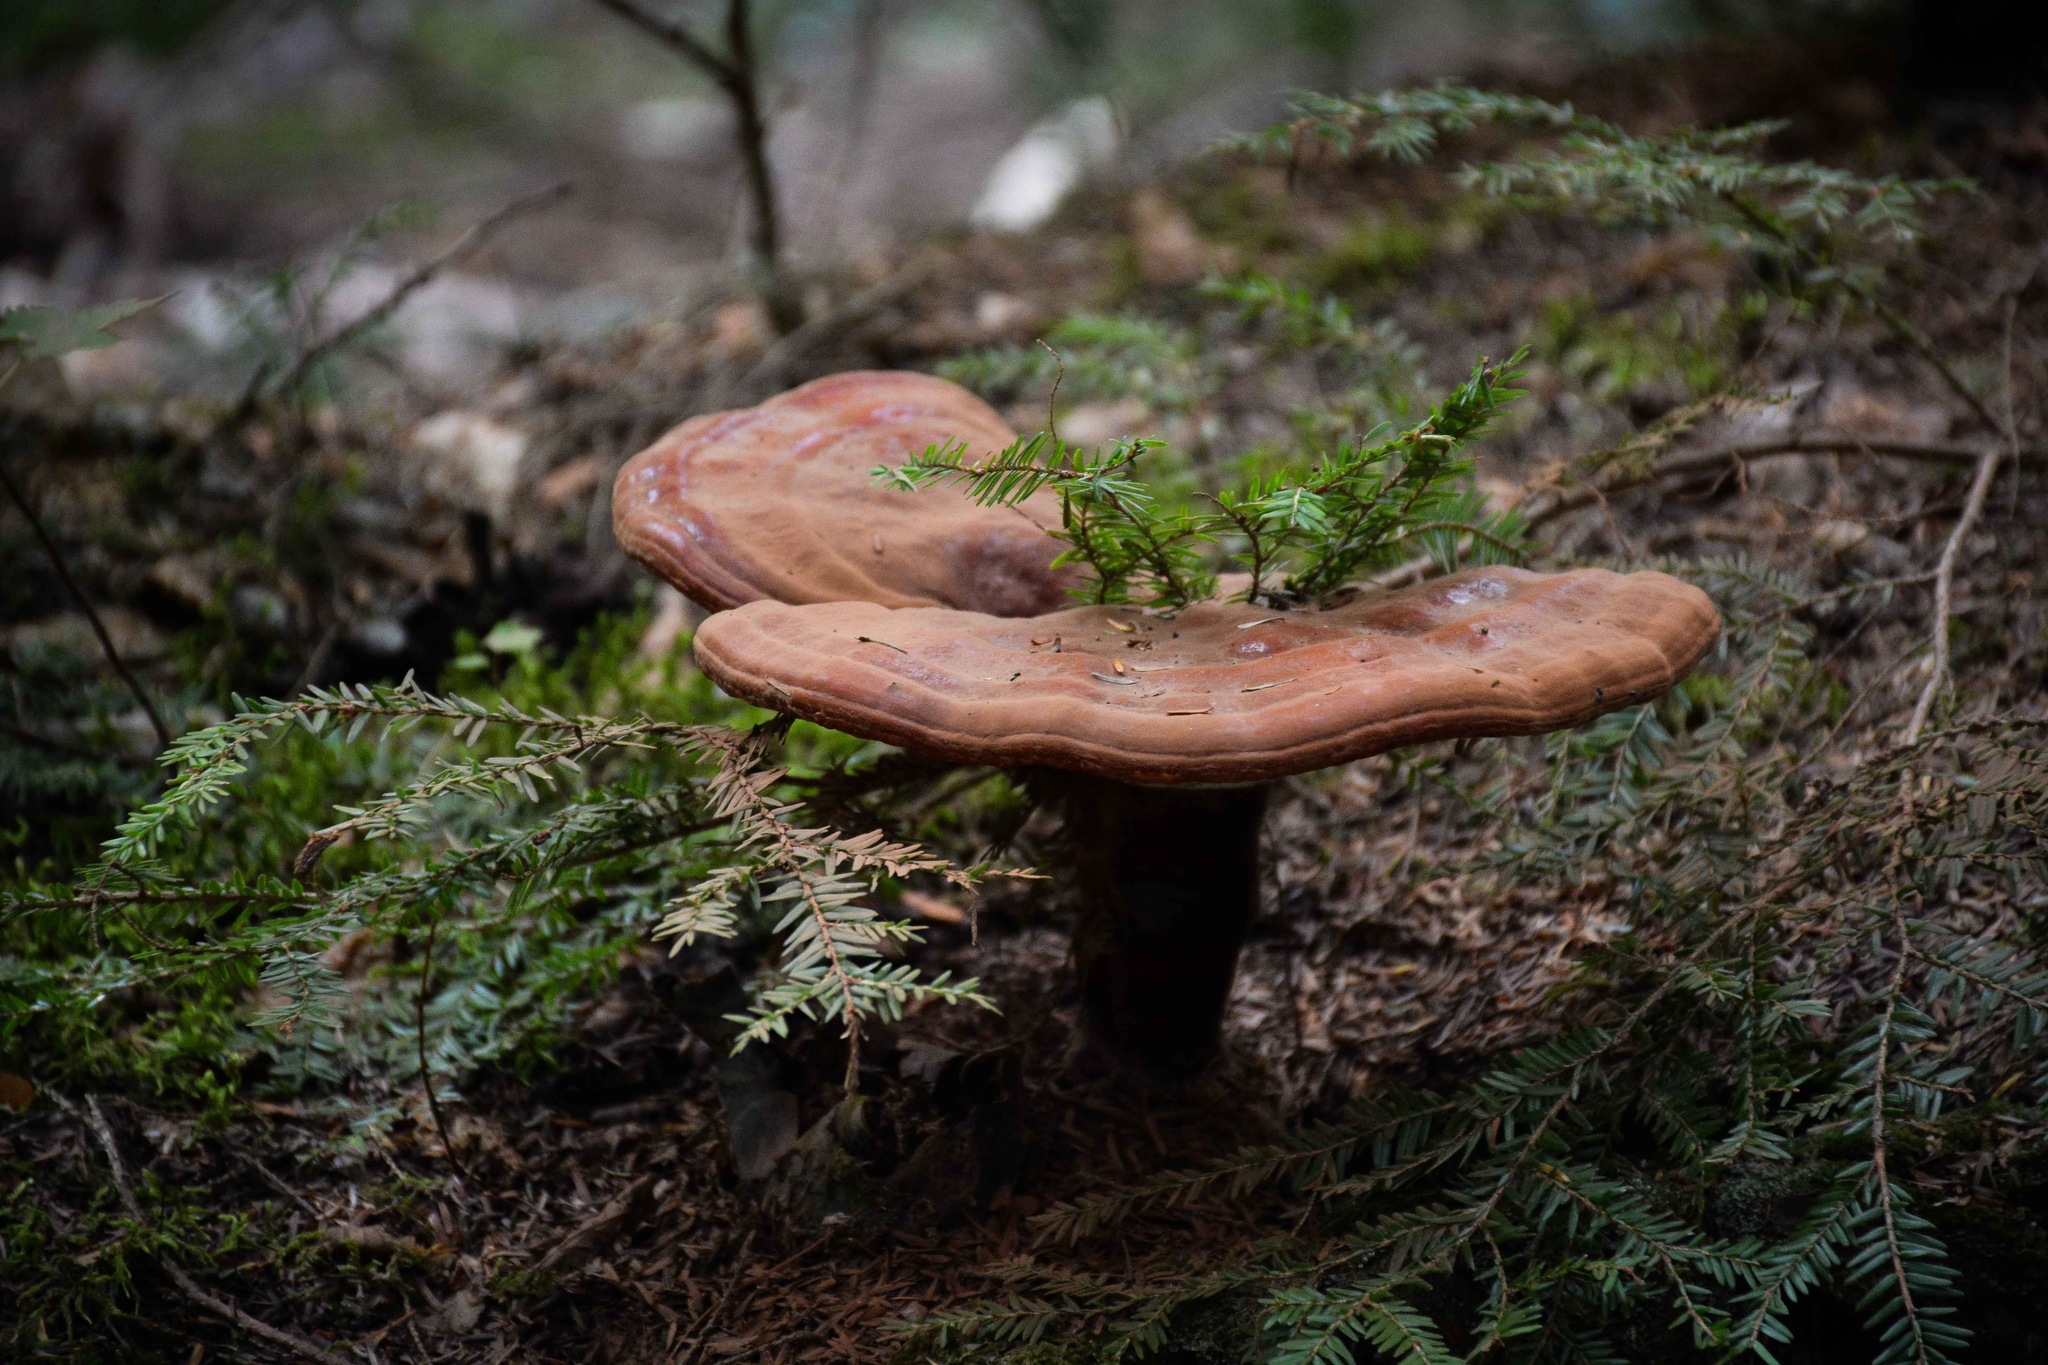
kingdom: Fungi
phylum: Basidiomycota
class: Agaricomycetes
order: Polyporales
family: Polyporaceae
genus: Ganoderma
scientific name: Ganoderma tsugae
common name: Hemlock varnish shelf
